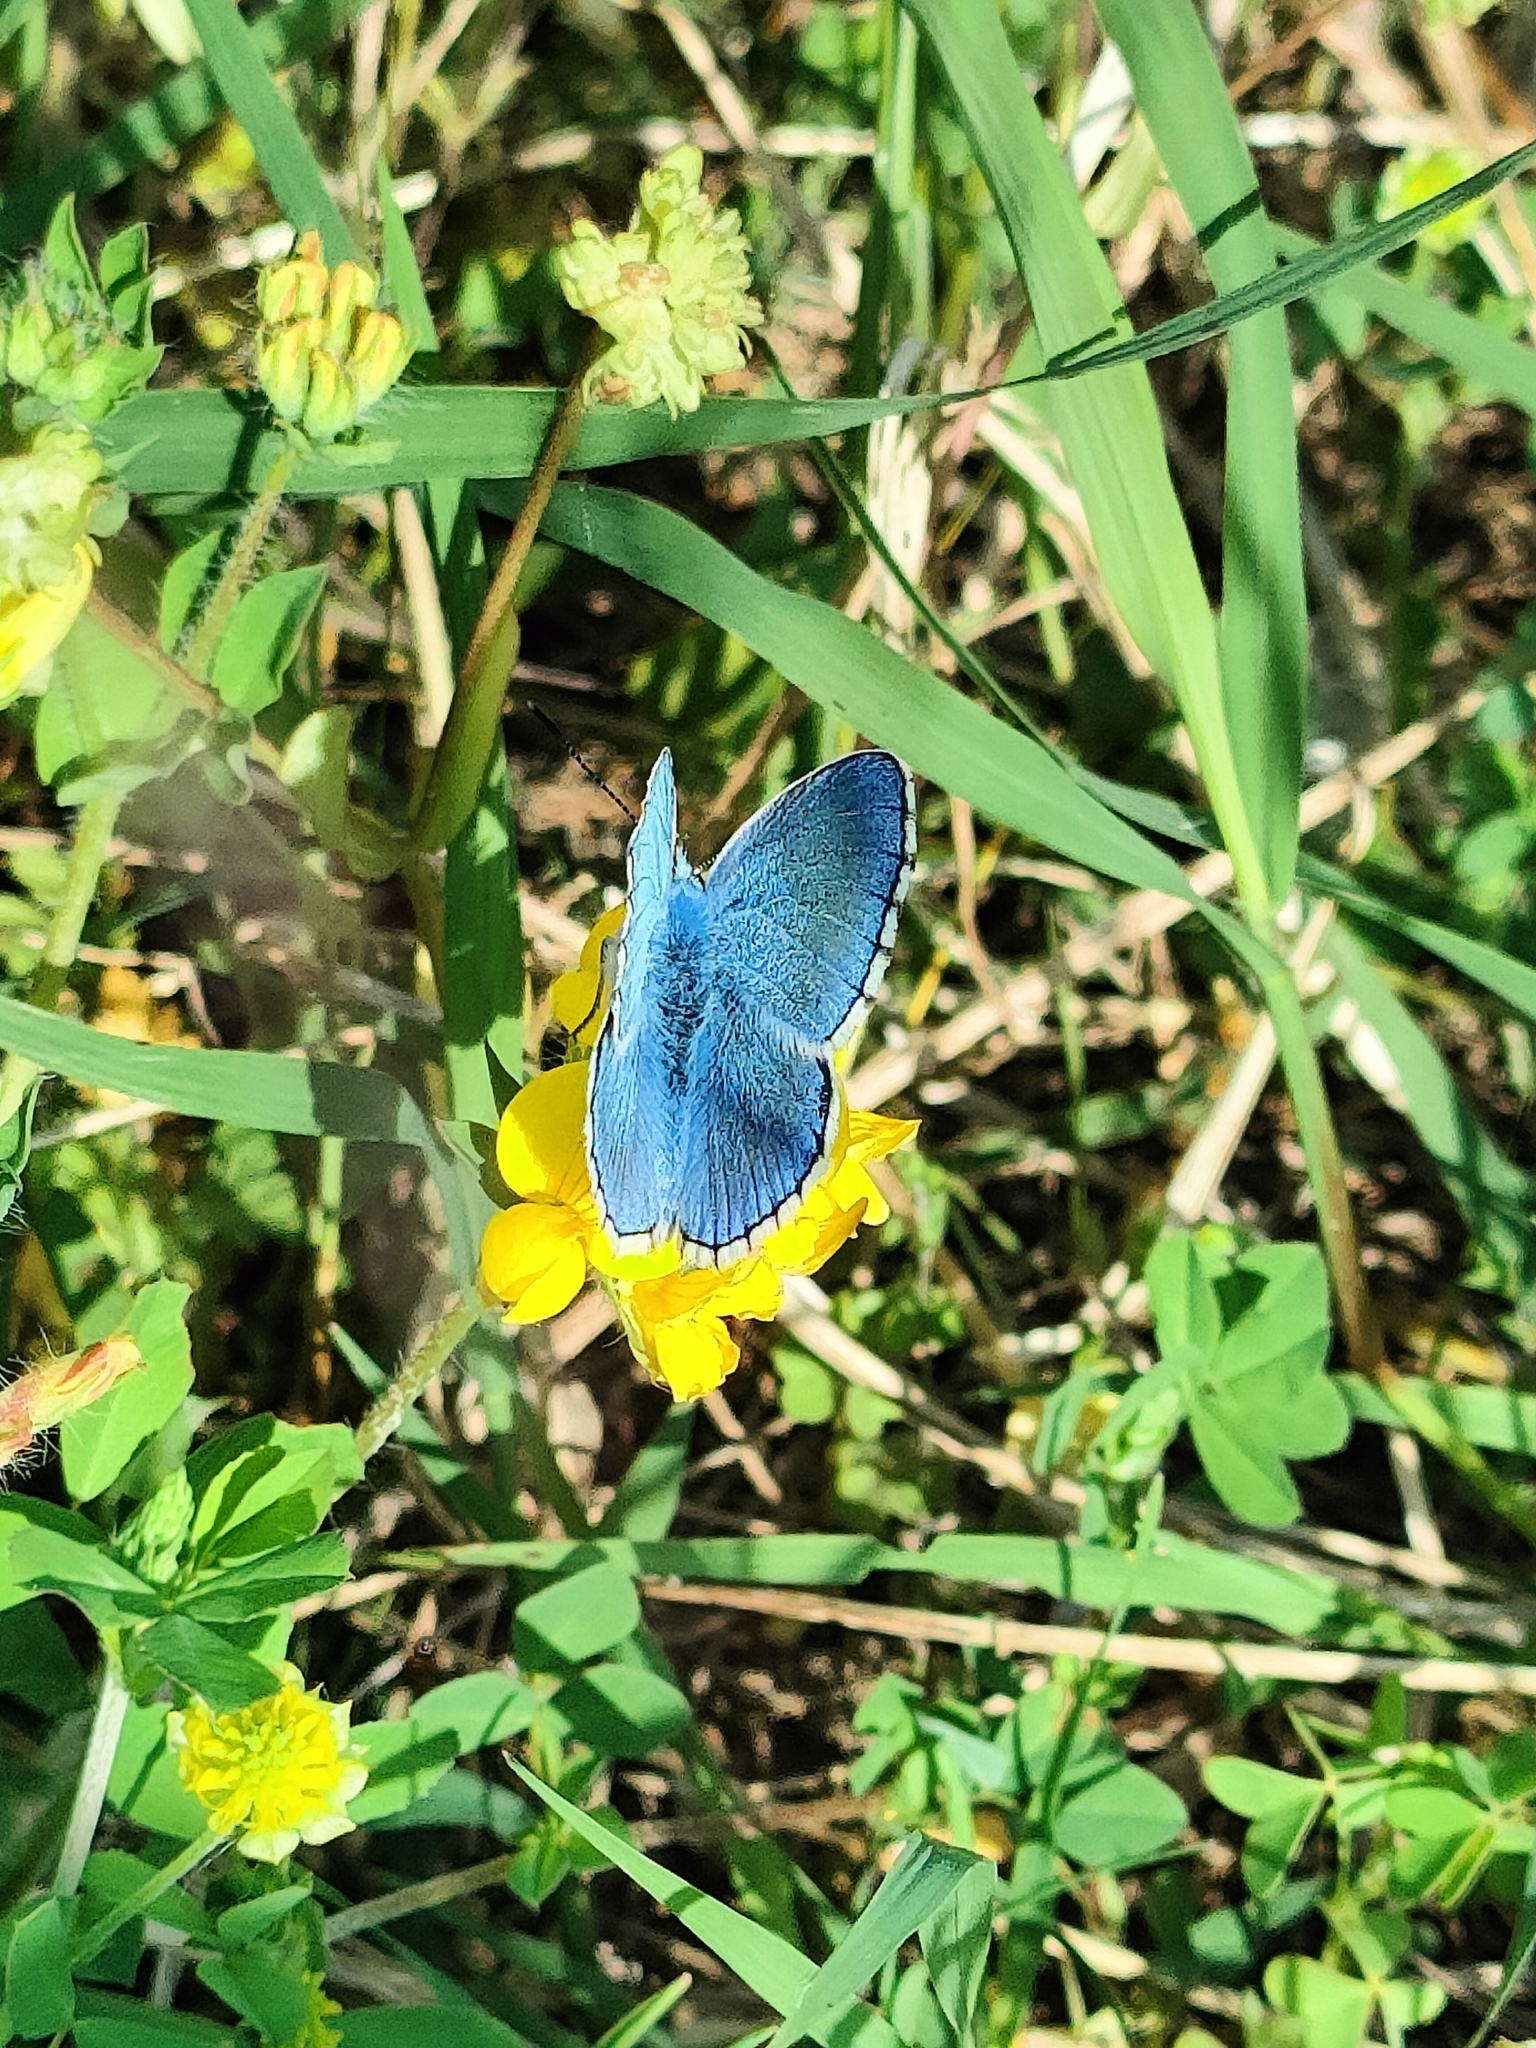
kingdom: Animalia
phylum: Arthropoda
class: Insecta
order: Lepidoptera
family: Lycaenidae
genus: Lysandra
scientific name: Lysandra bellargus
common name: Adonis blue
